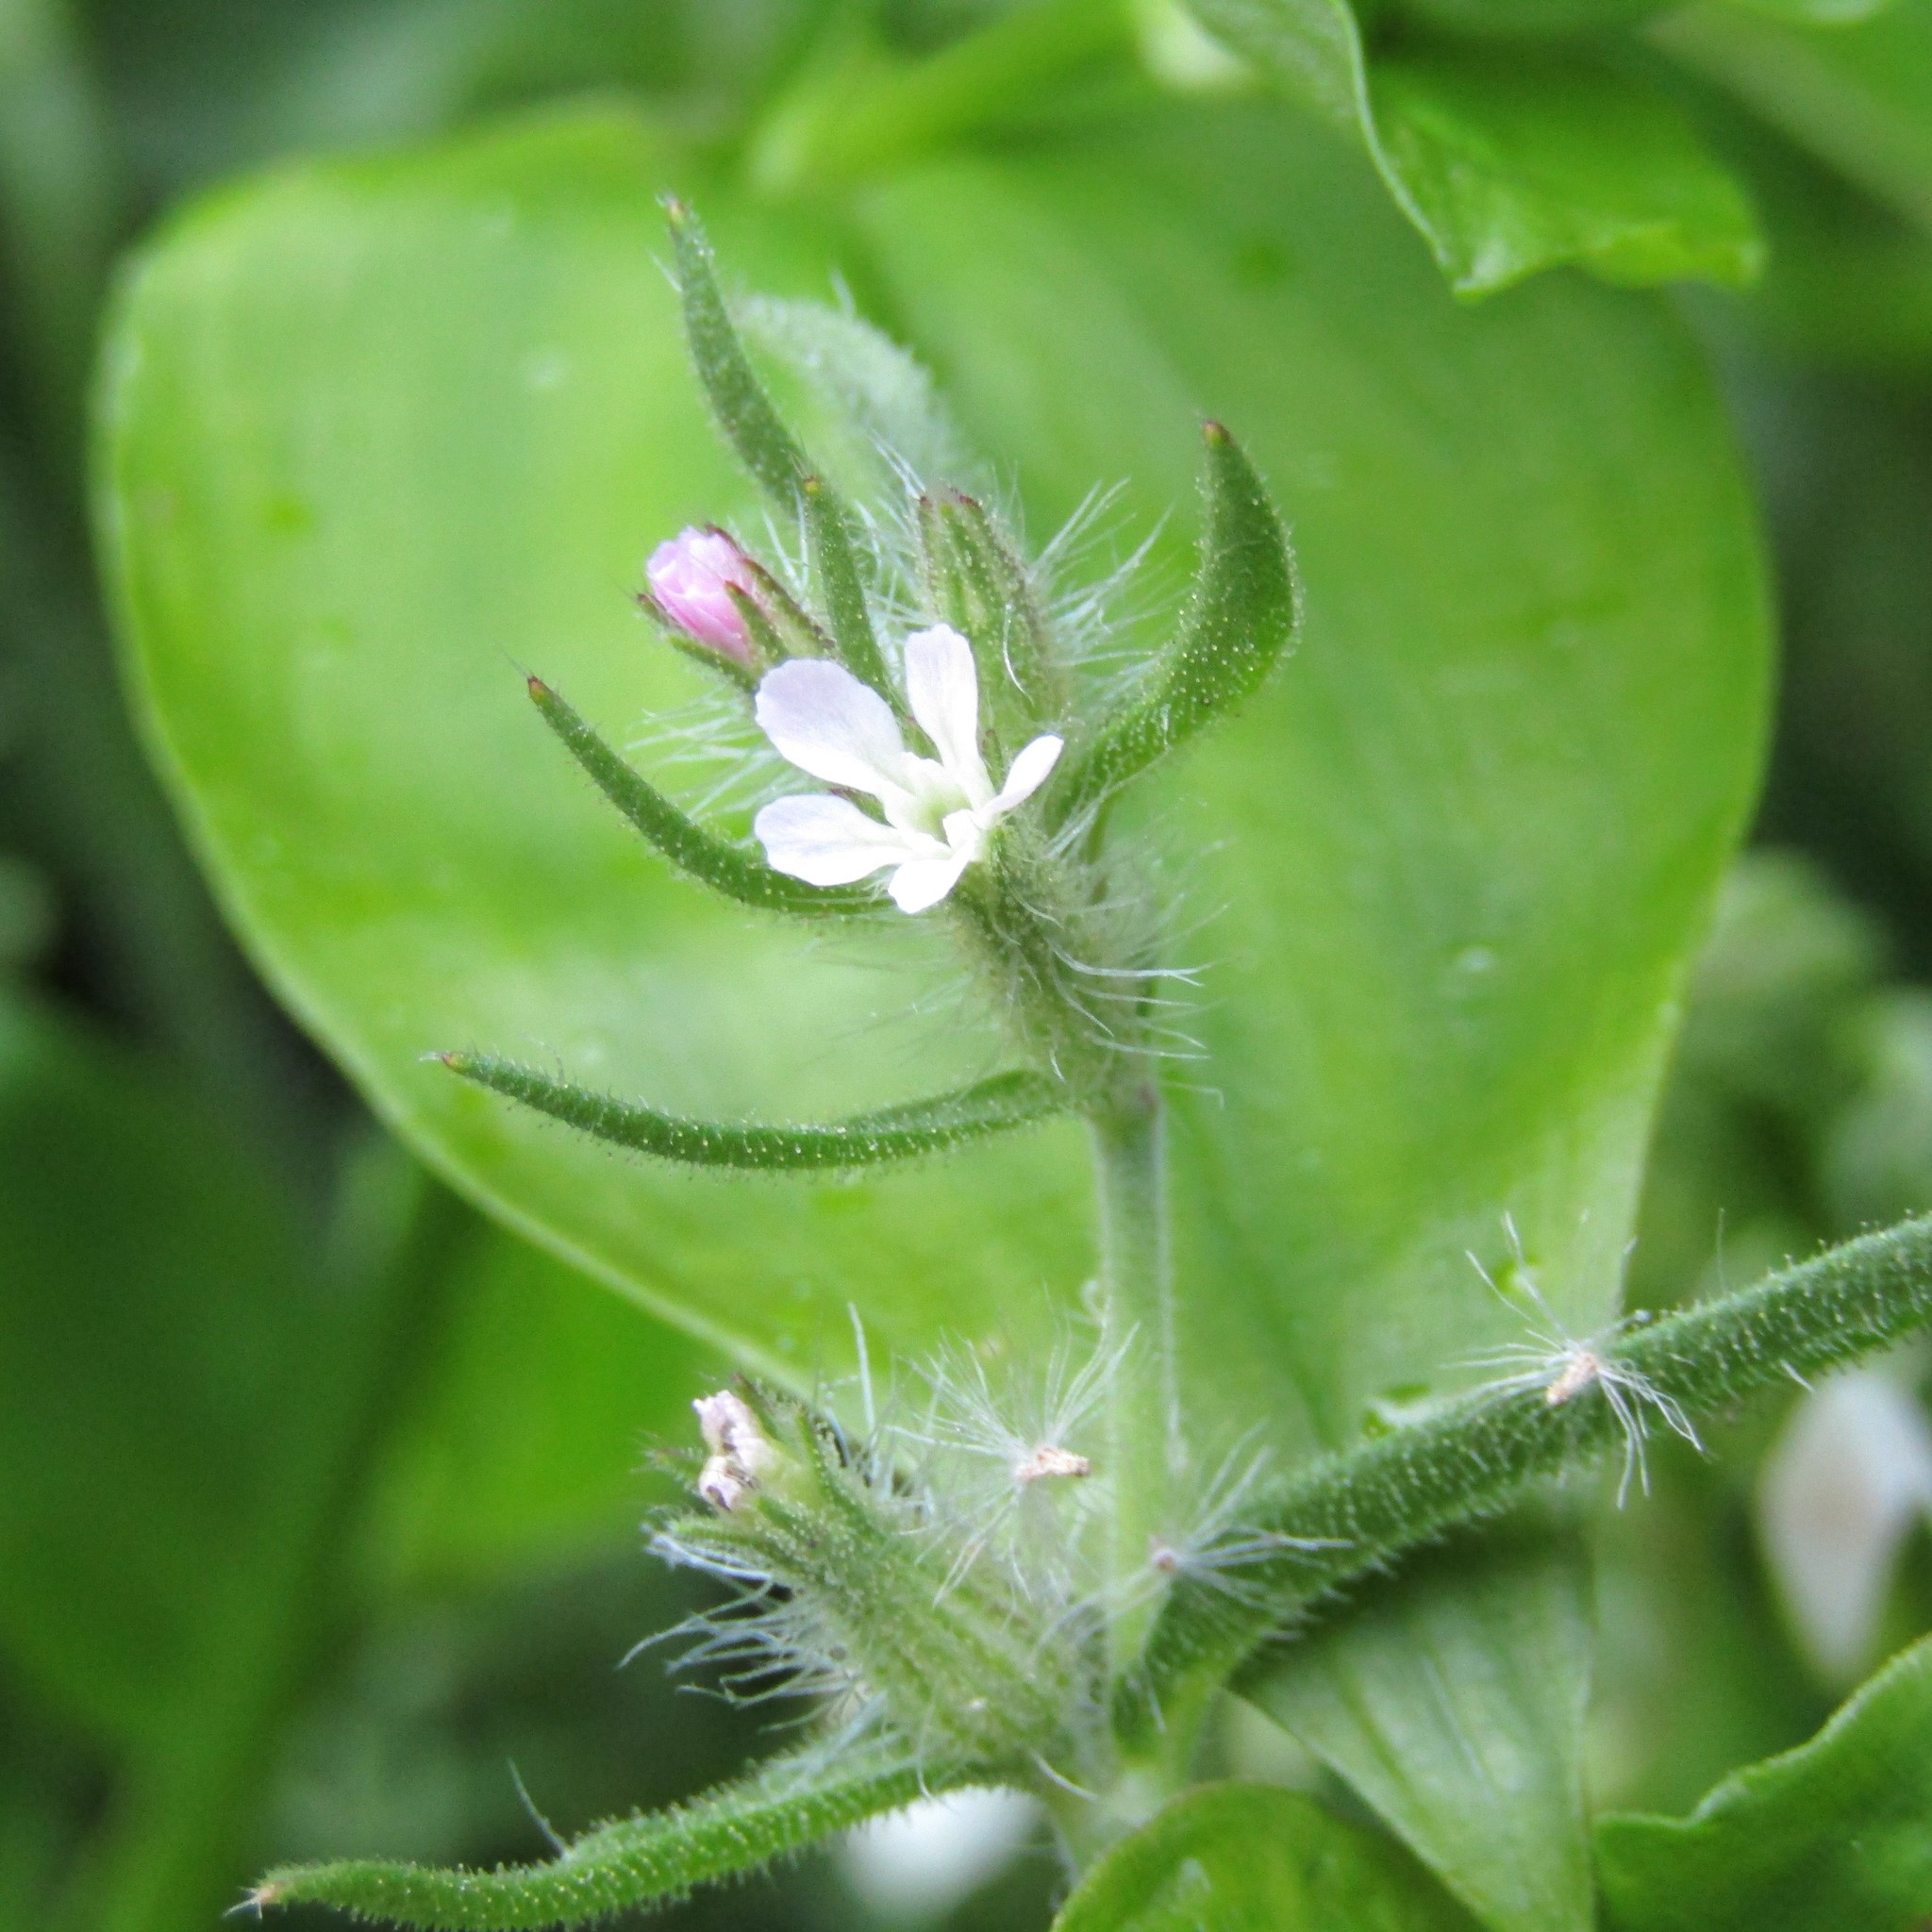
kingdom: Plantae
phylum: Tracheophyta
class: Magnoliopsida
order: Caryophyllales
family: Caryophyllaceae
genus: Silene
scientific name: Silene gallica
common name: Small-flowered catchfly
